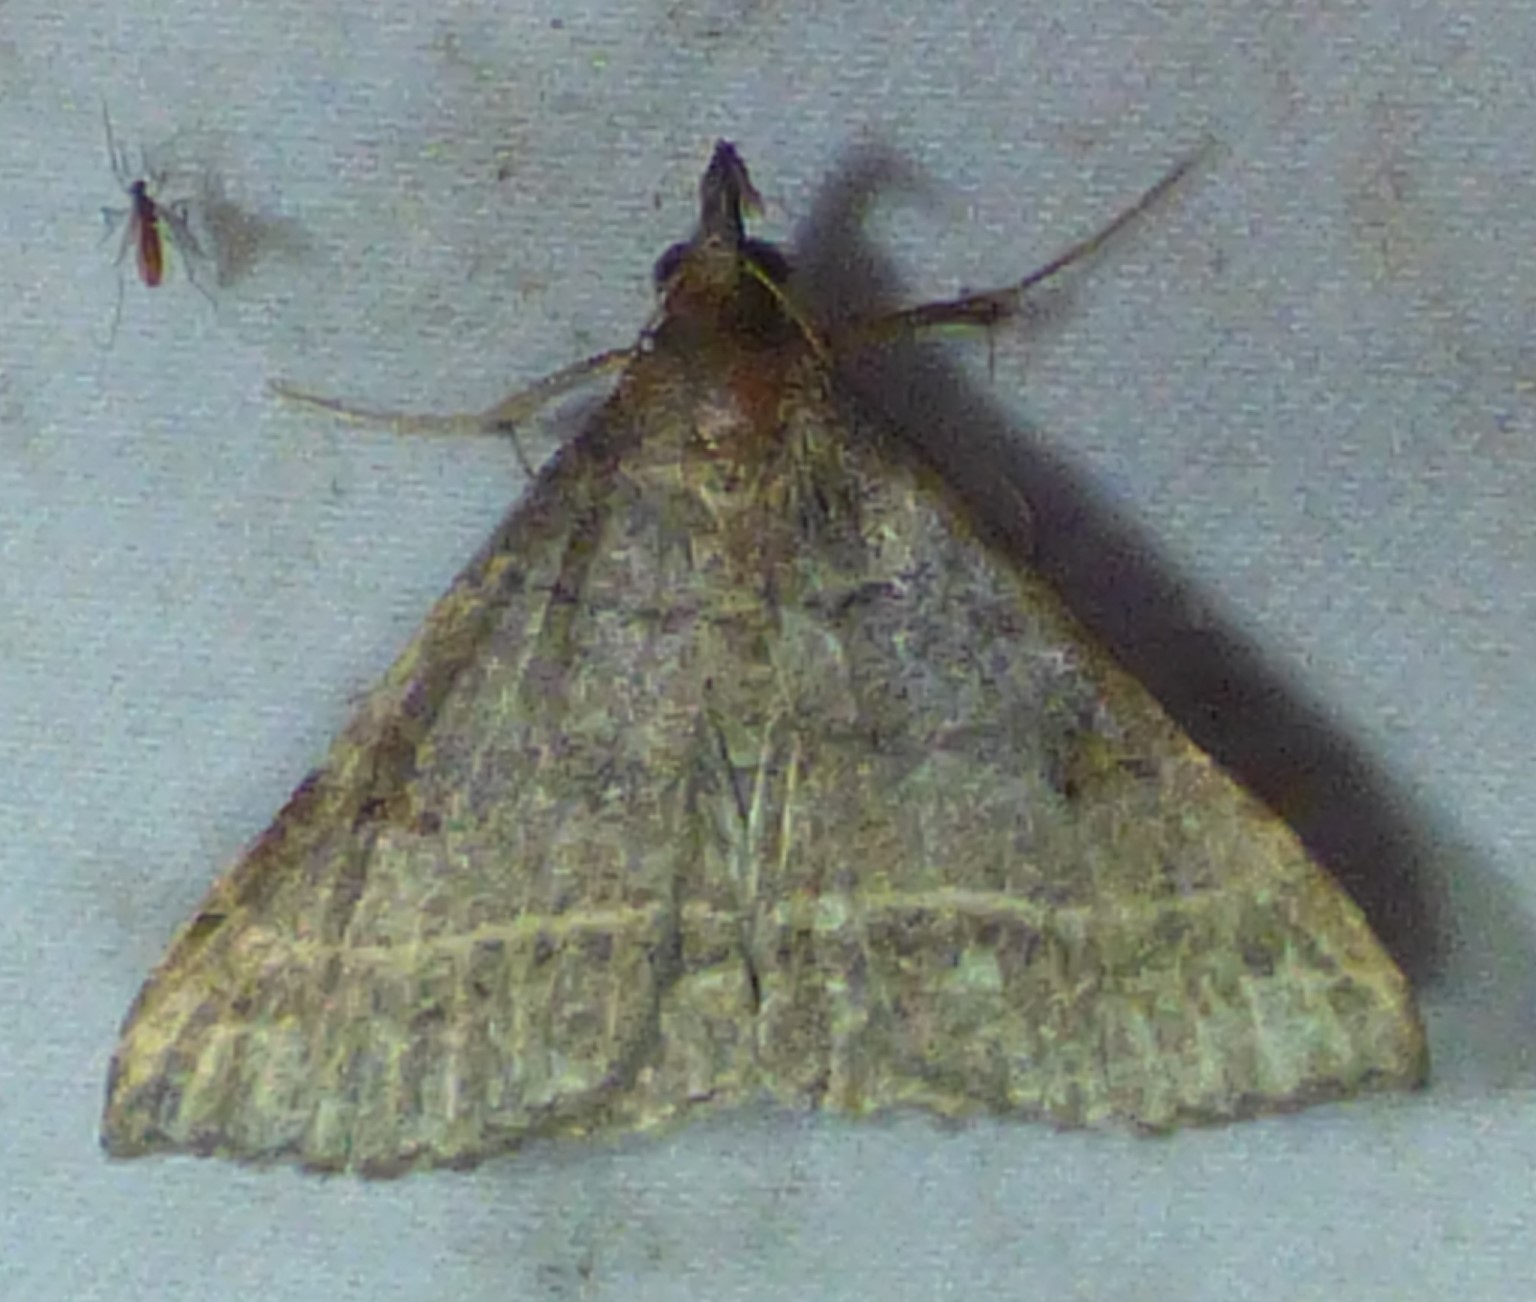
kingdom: Animalia
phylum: Arthropoda
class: Insecta
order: Lepidoptera
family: Erebidae
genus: Renia
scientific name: Renia flavipunctalis
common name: Yellow-spotted renia moth
